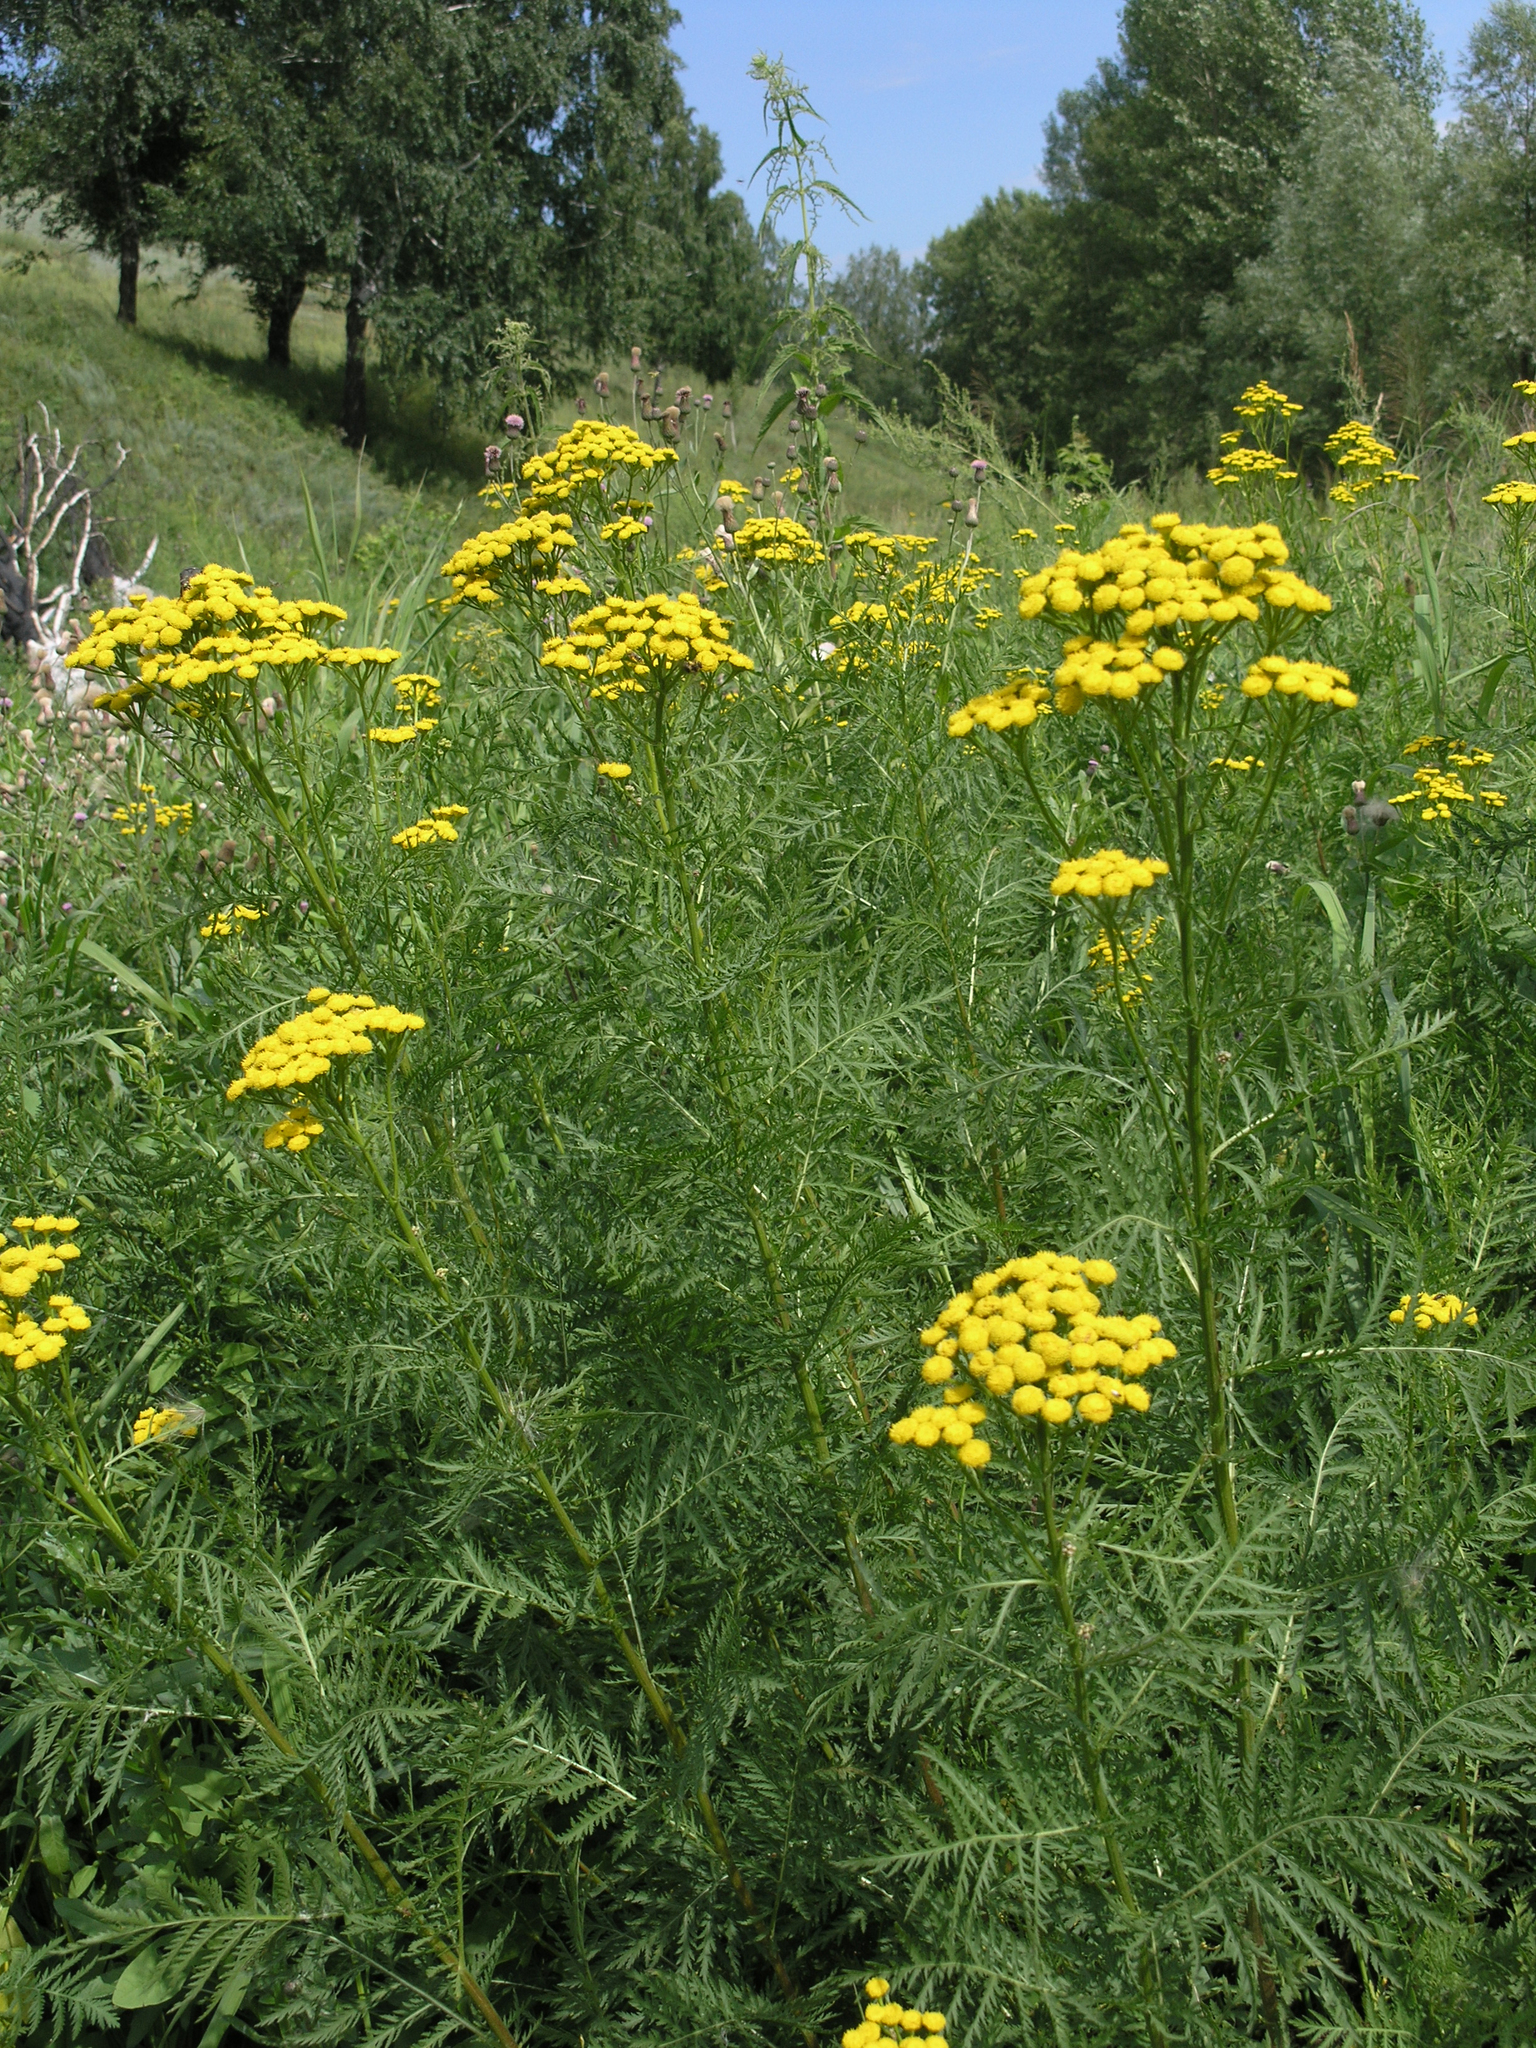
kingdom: Plantae
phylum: Tracheophyta
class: Magnoliopsida
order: Asterales
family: Asteraceae
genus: Tanacetum
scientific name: Tanacetum vulgare
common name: Common tansy
